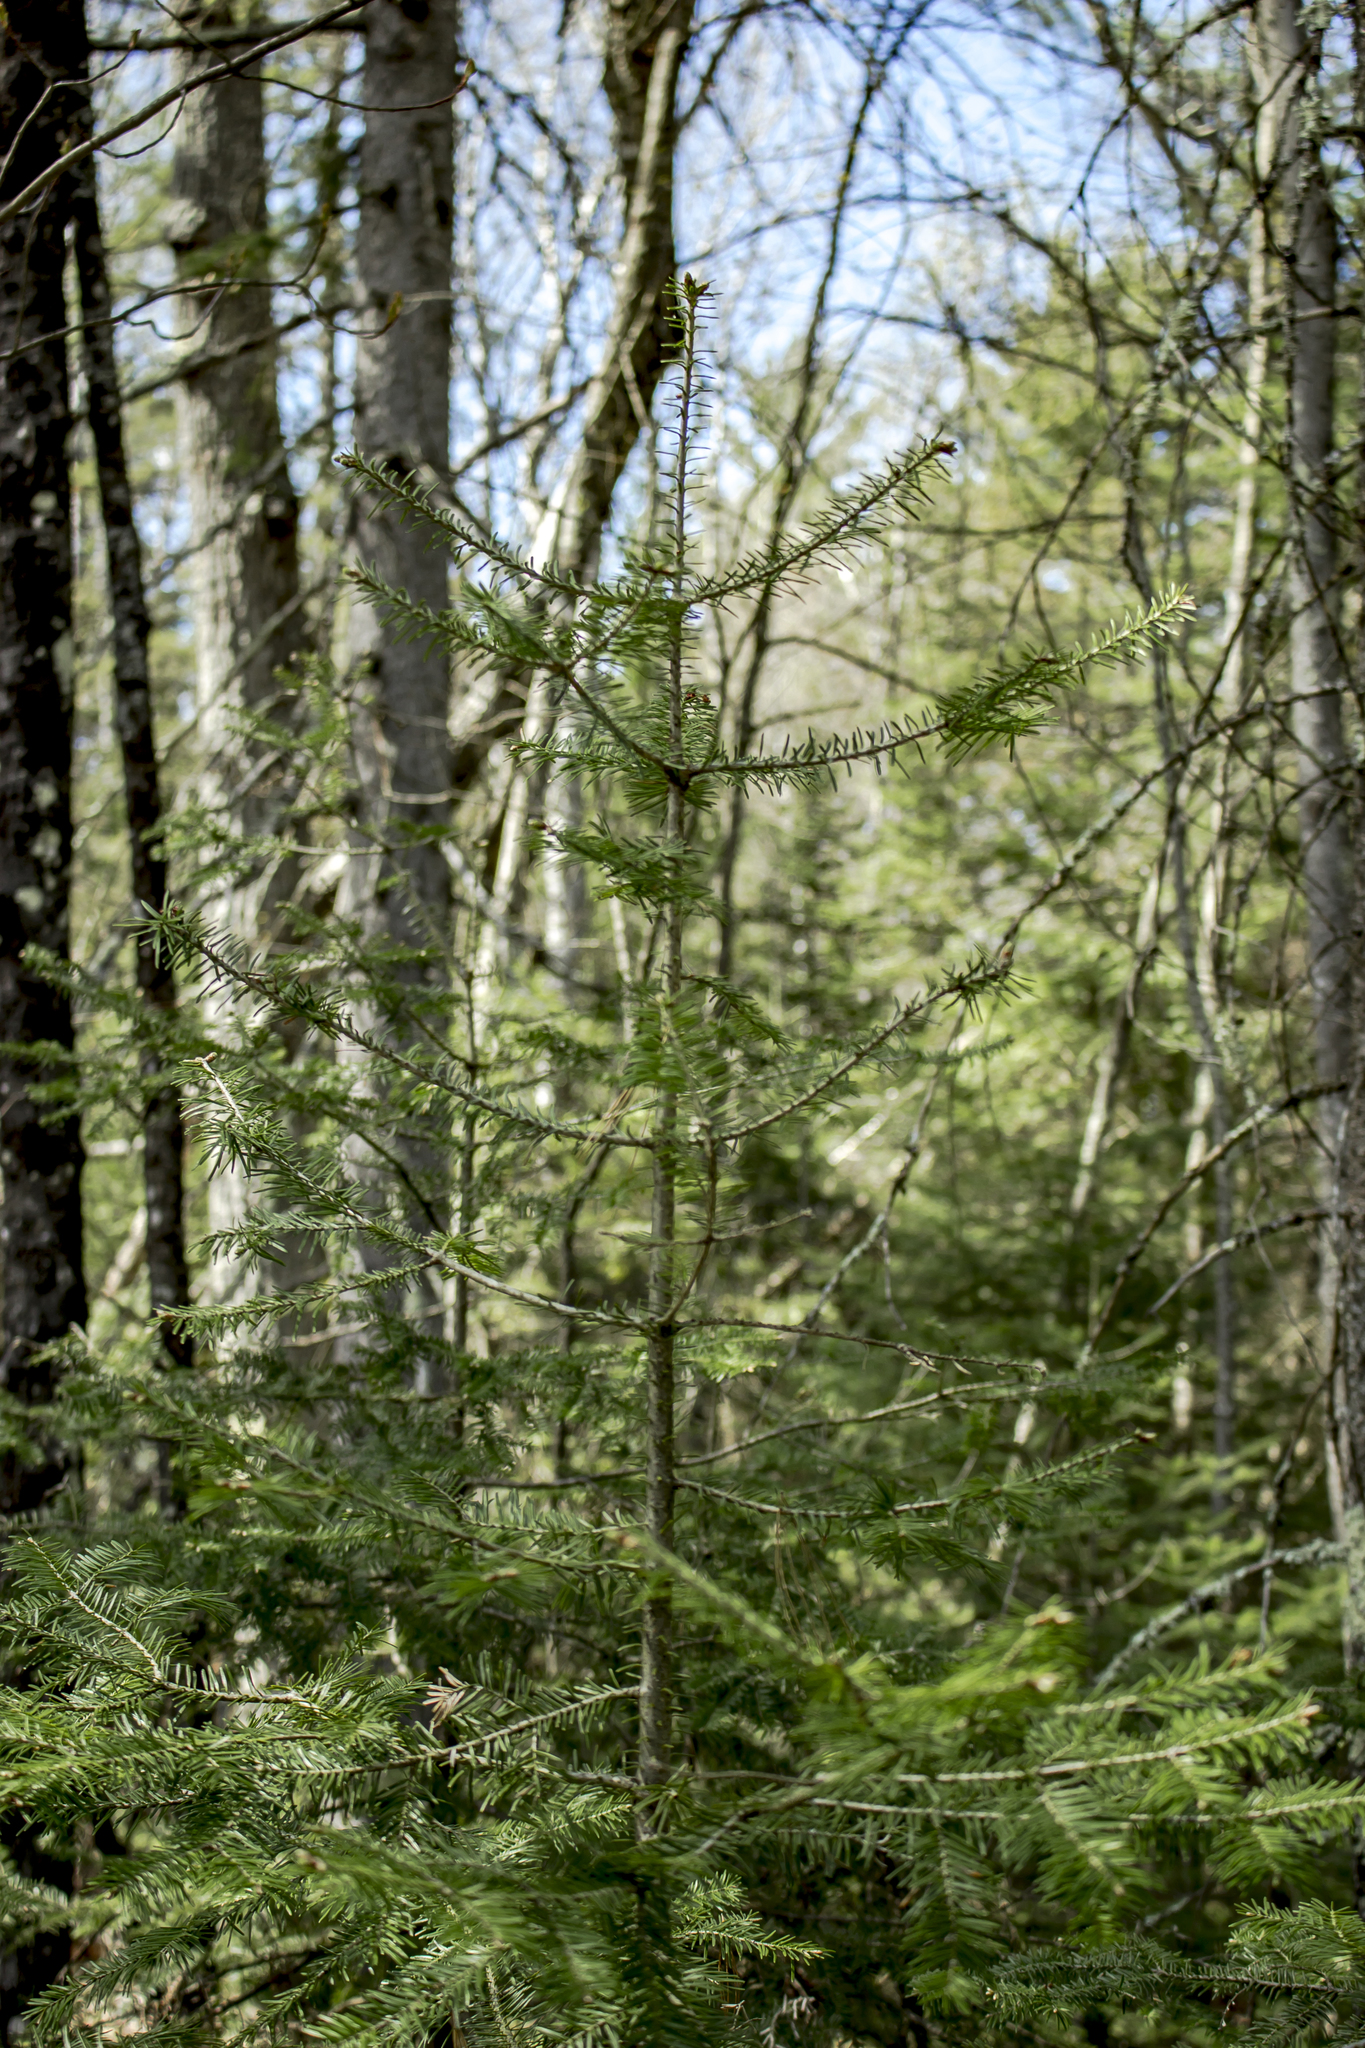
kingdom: Plantae
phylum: Tracheophyta
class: Pinopsida
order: Pinales
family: Pinaceae
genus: Abies
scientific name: Abies balsamea
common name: Balsam fir
